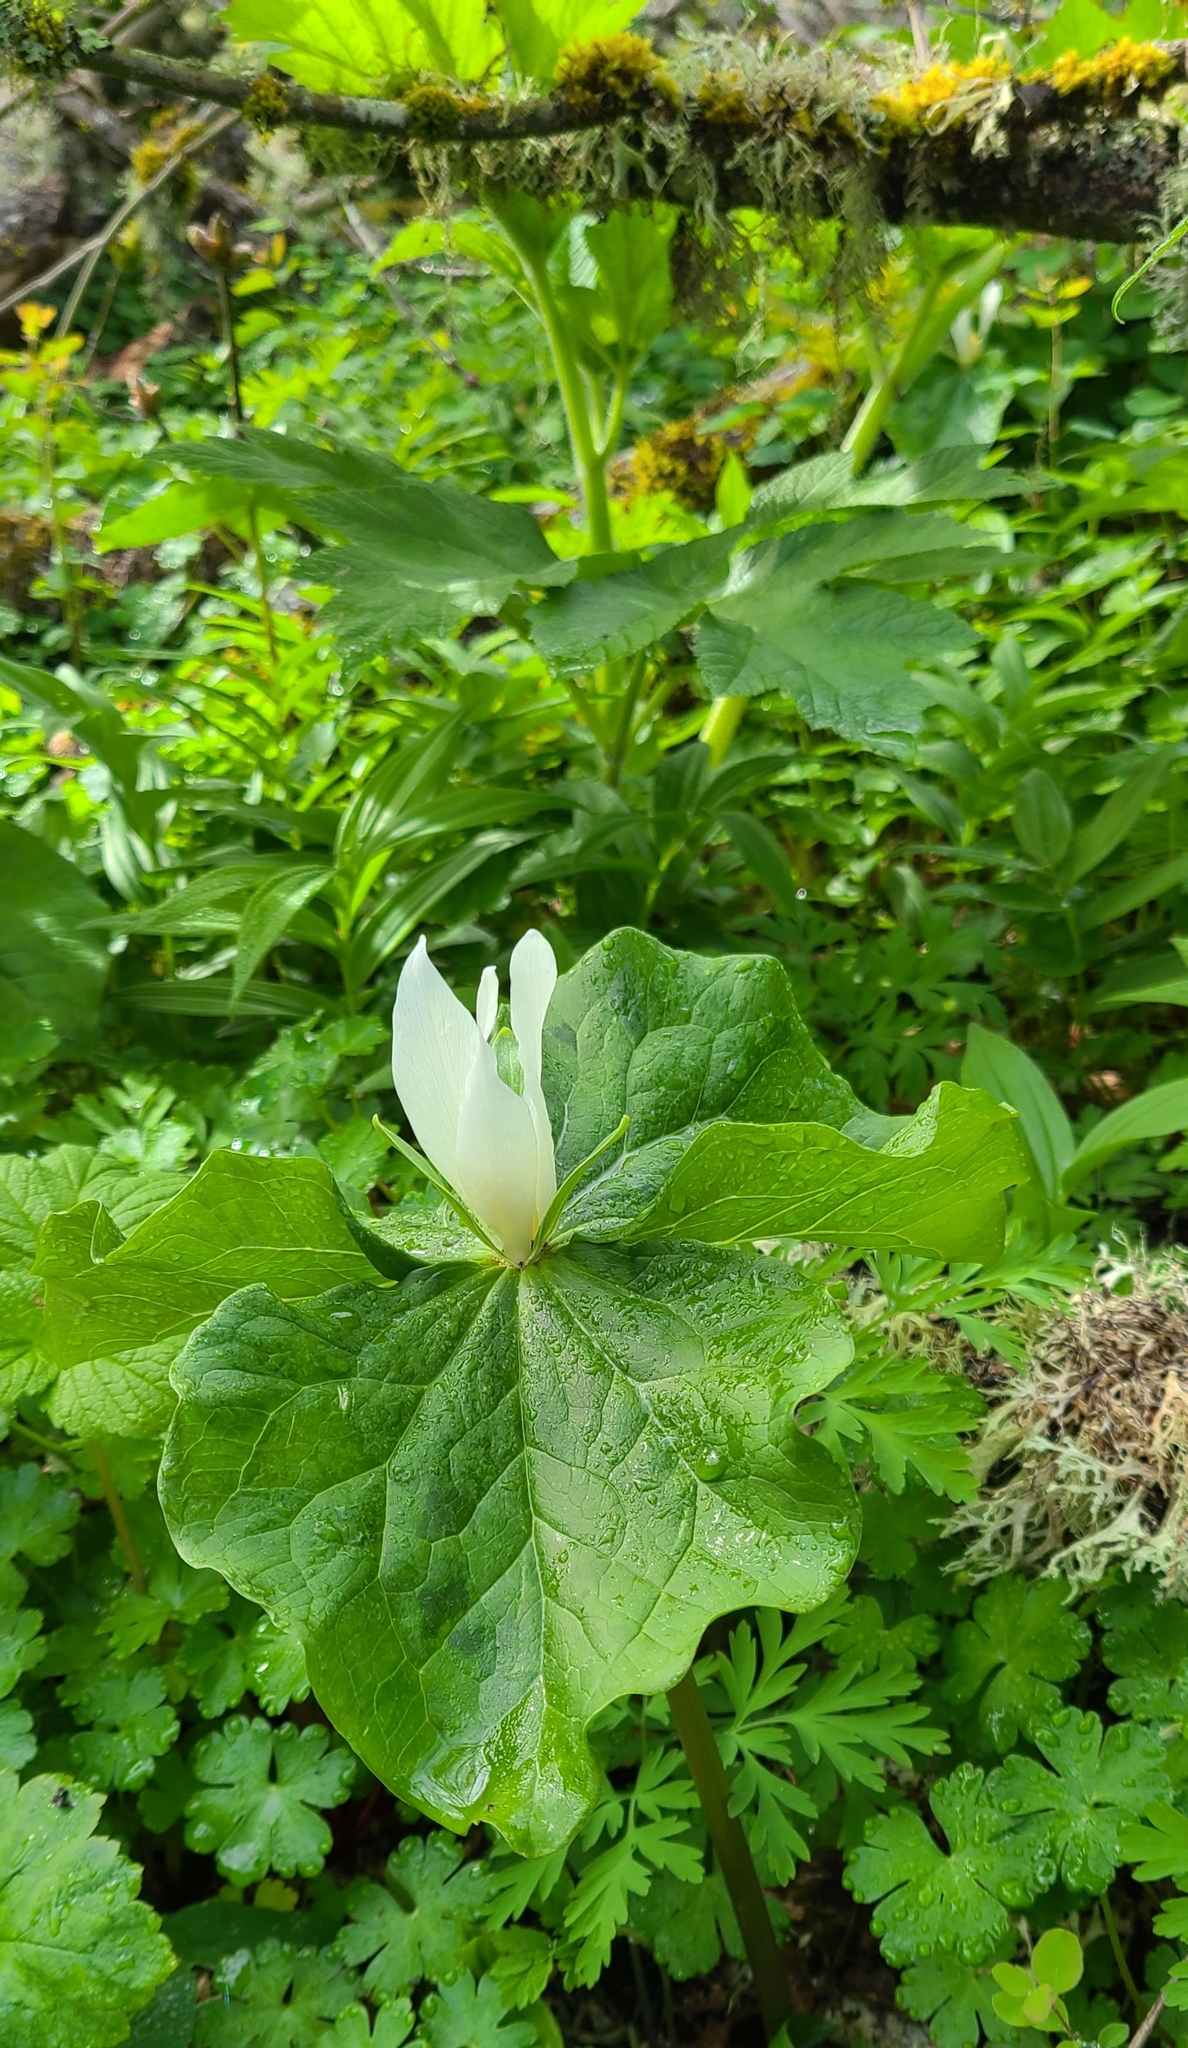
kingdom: Plantae
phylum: Tracheophyta
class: Liliopsida
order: Liliales
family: Melanthiaceae
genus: Trillium
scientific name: Trillium albidum
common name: Freeman's trillium
